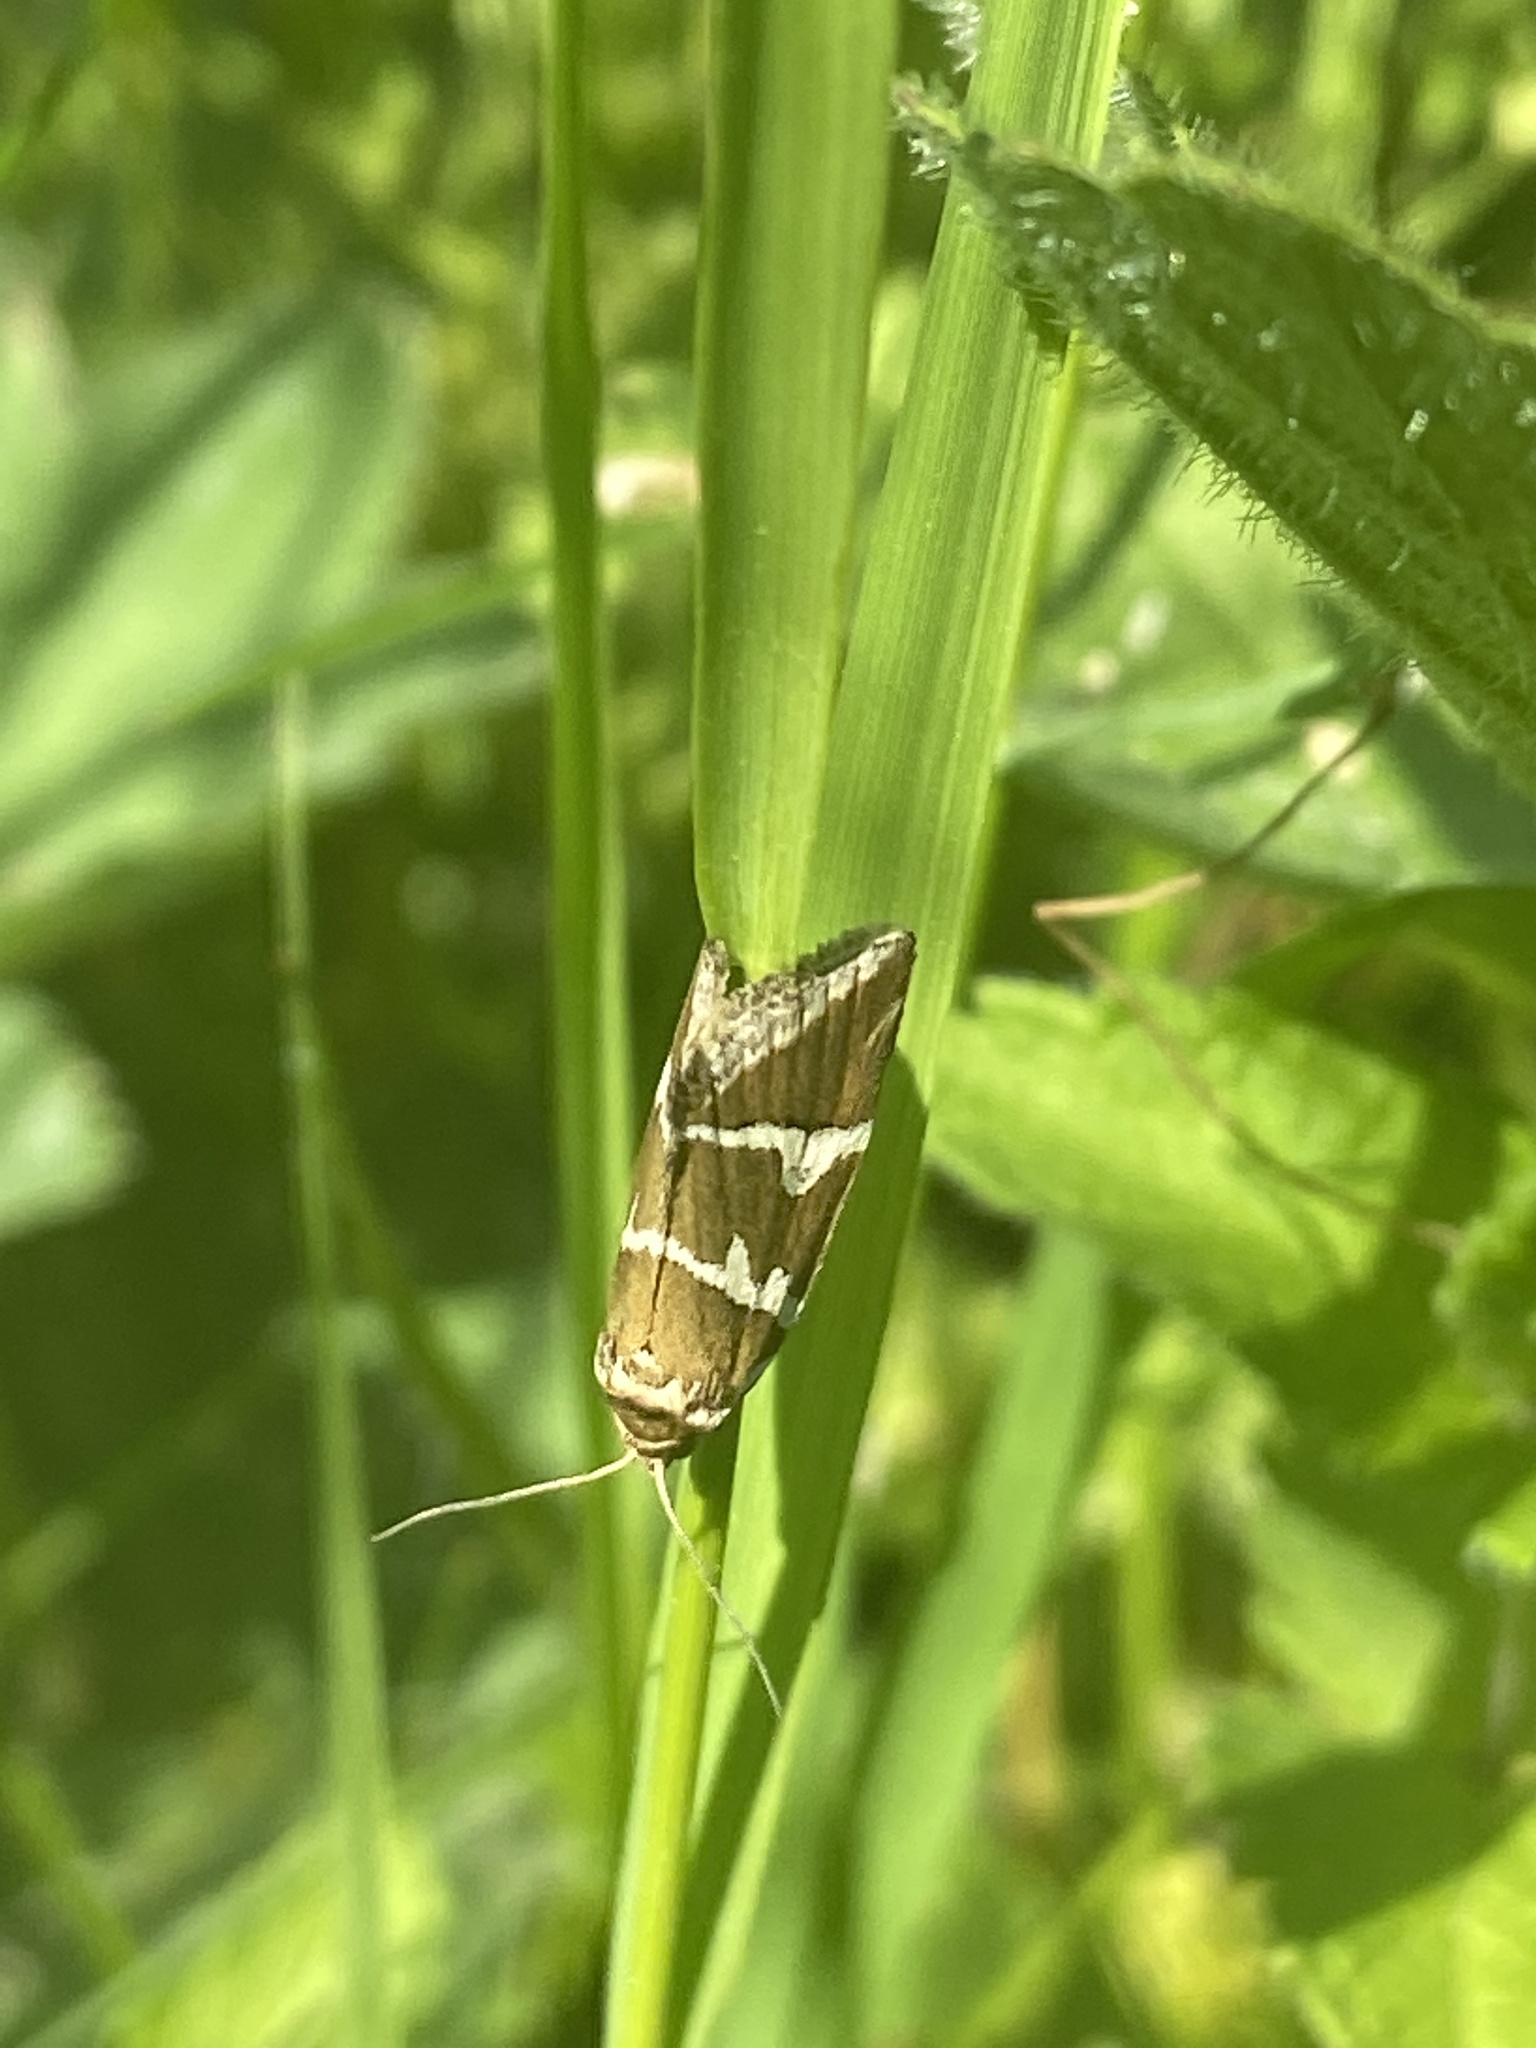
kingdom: Animalia
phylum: Arthropoda
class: Insecta
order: Lepidoptera
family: Noctuidae
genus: Deltote
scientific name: Deltote bankiana
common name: Silver barred
